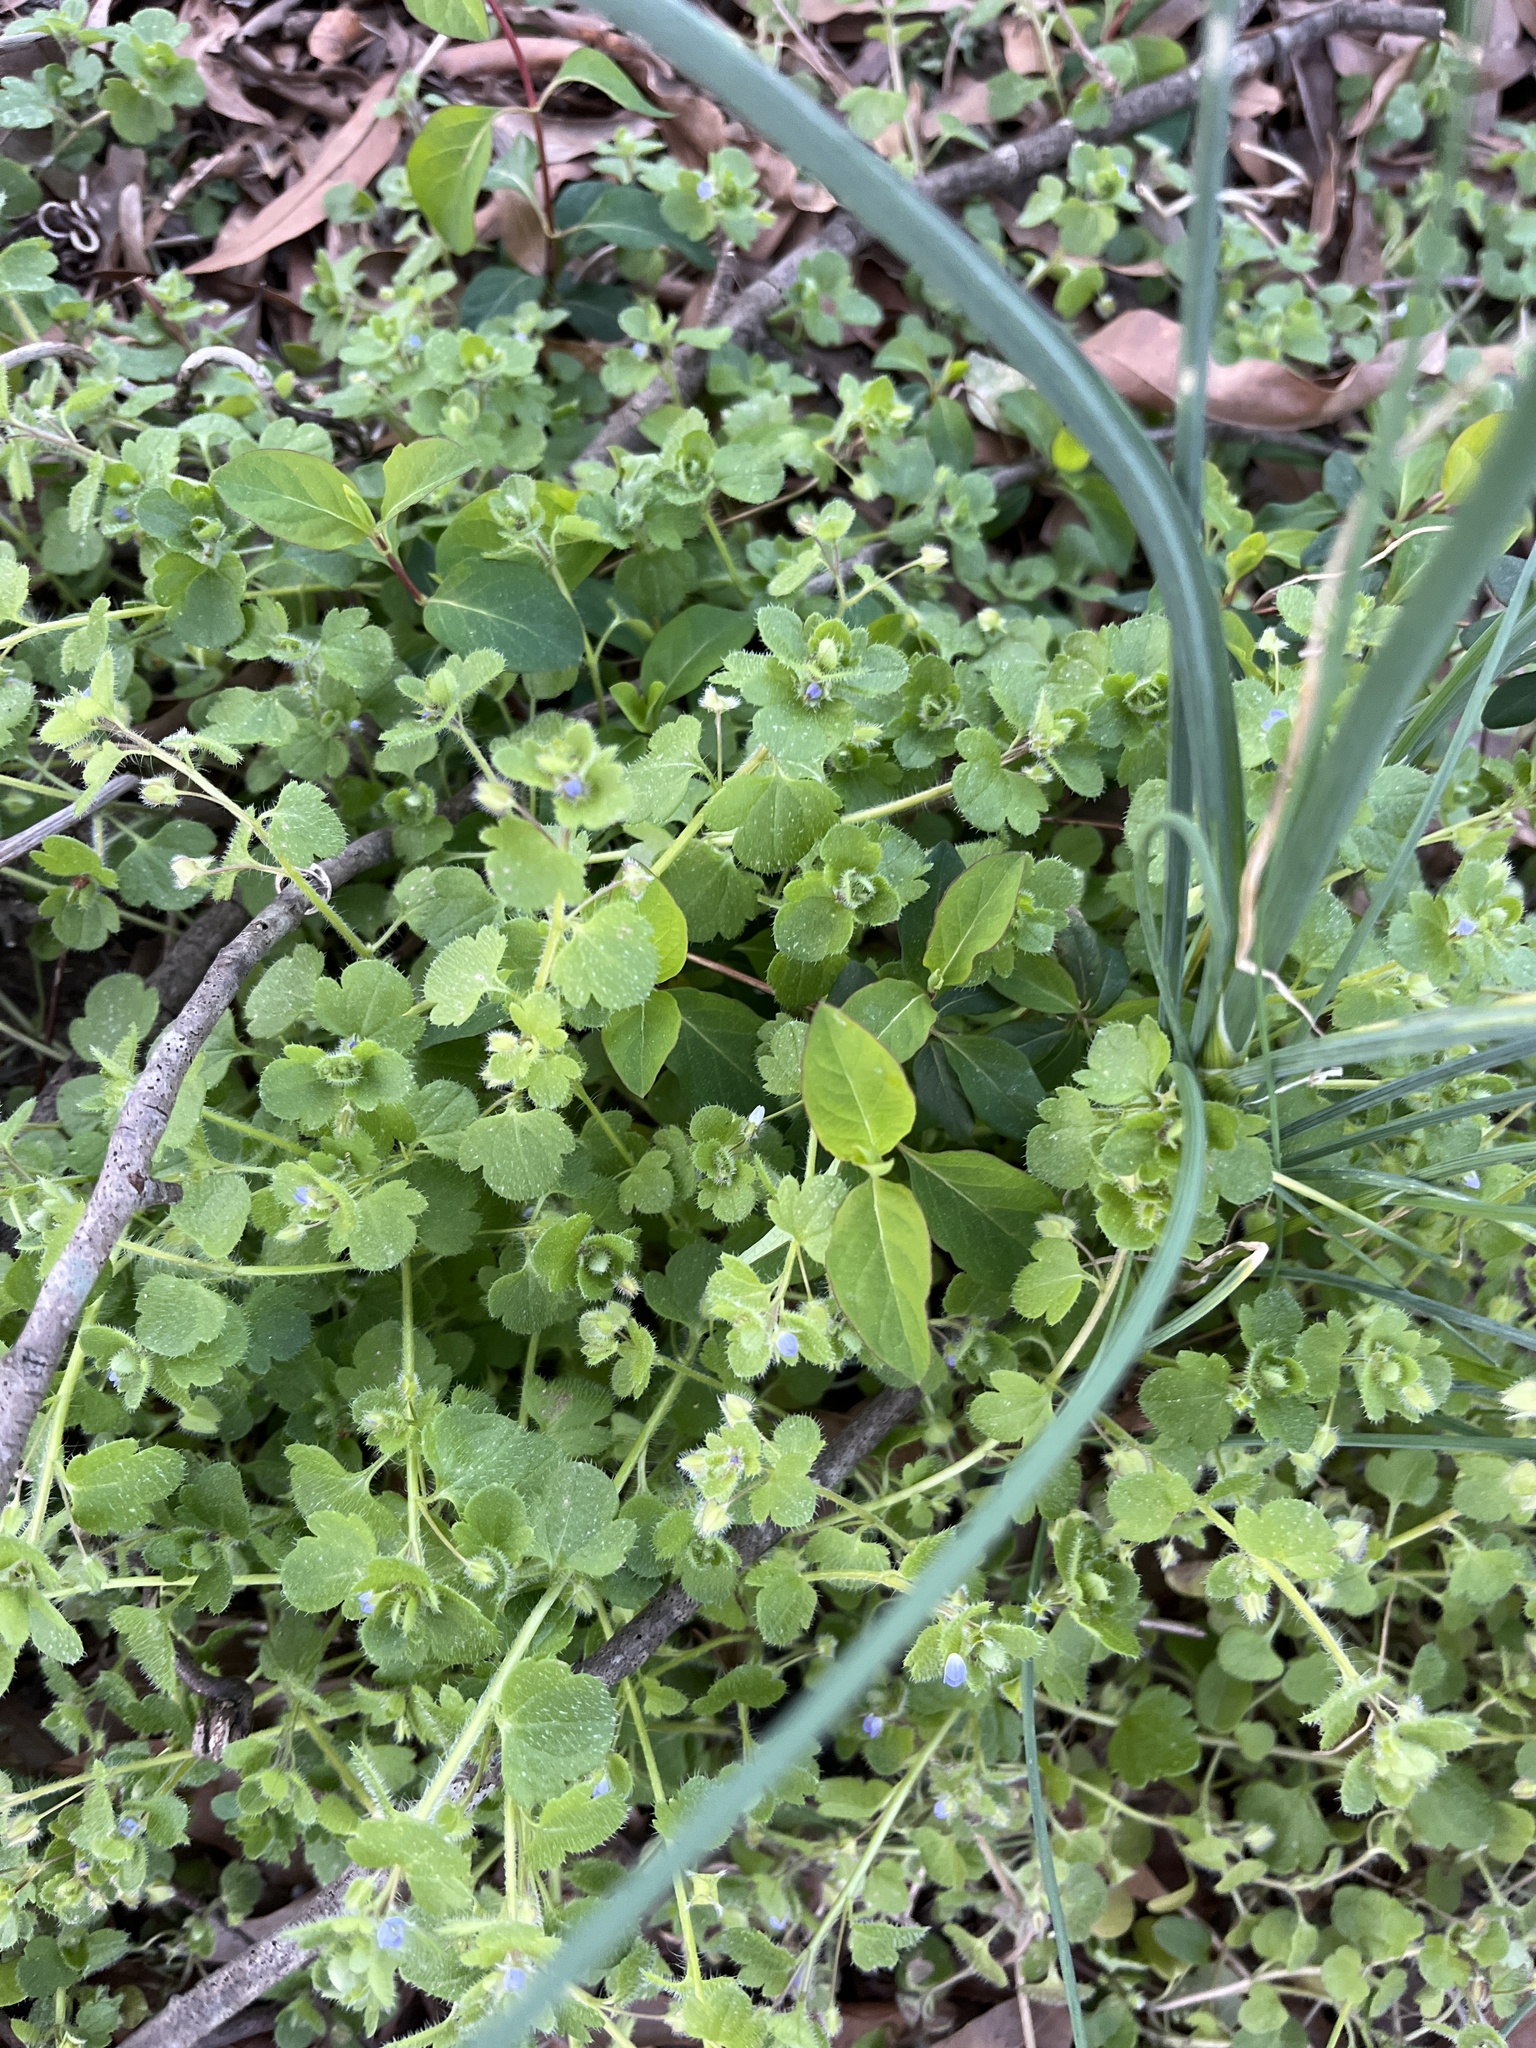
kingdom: Plantae
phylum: Tracheophyta
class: Magnoliopsida
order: Lamiales
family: Plantaginaceae
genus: Veronica
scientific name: Veronica hederifolia
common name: Ivy-leaved speedwell
